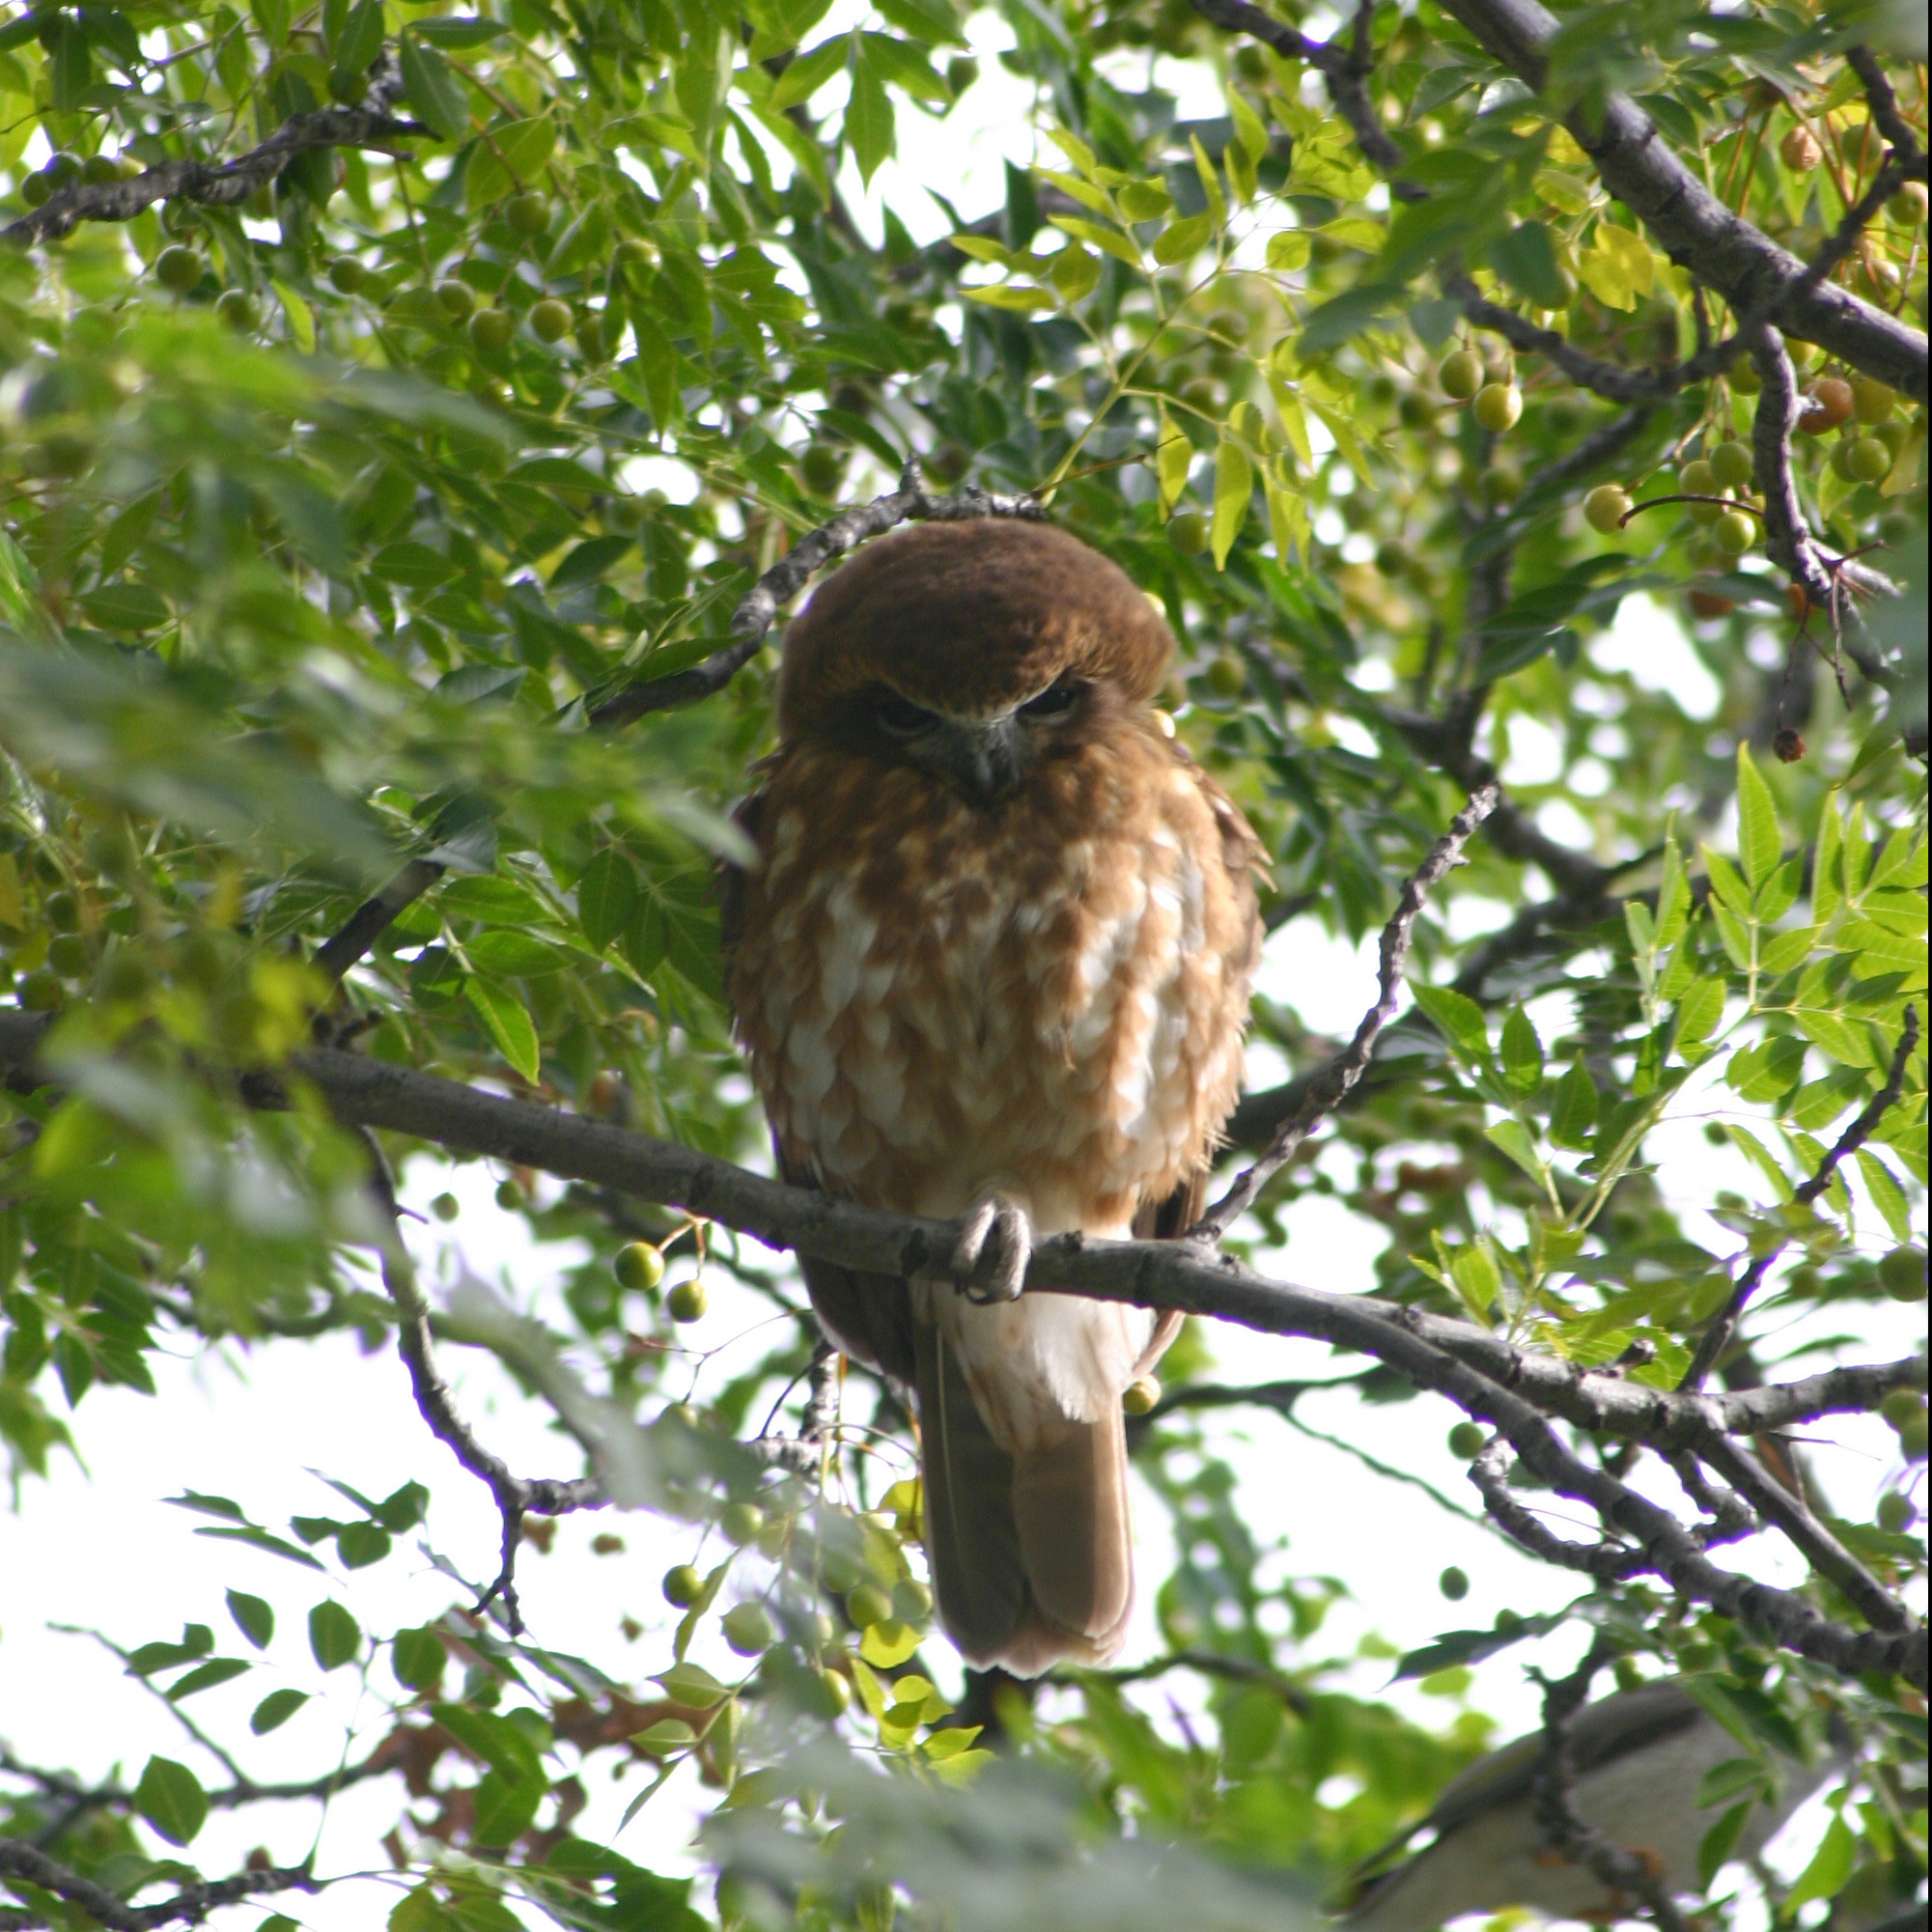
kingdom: Animalia
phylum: Chordata
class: Aves
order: Strigiformes
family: Strigidae
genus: Ninox
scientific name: Ninox boobook
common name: Southern boobook
